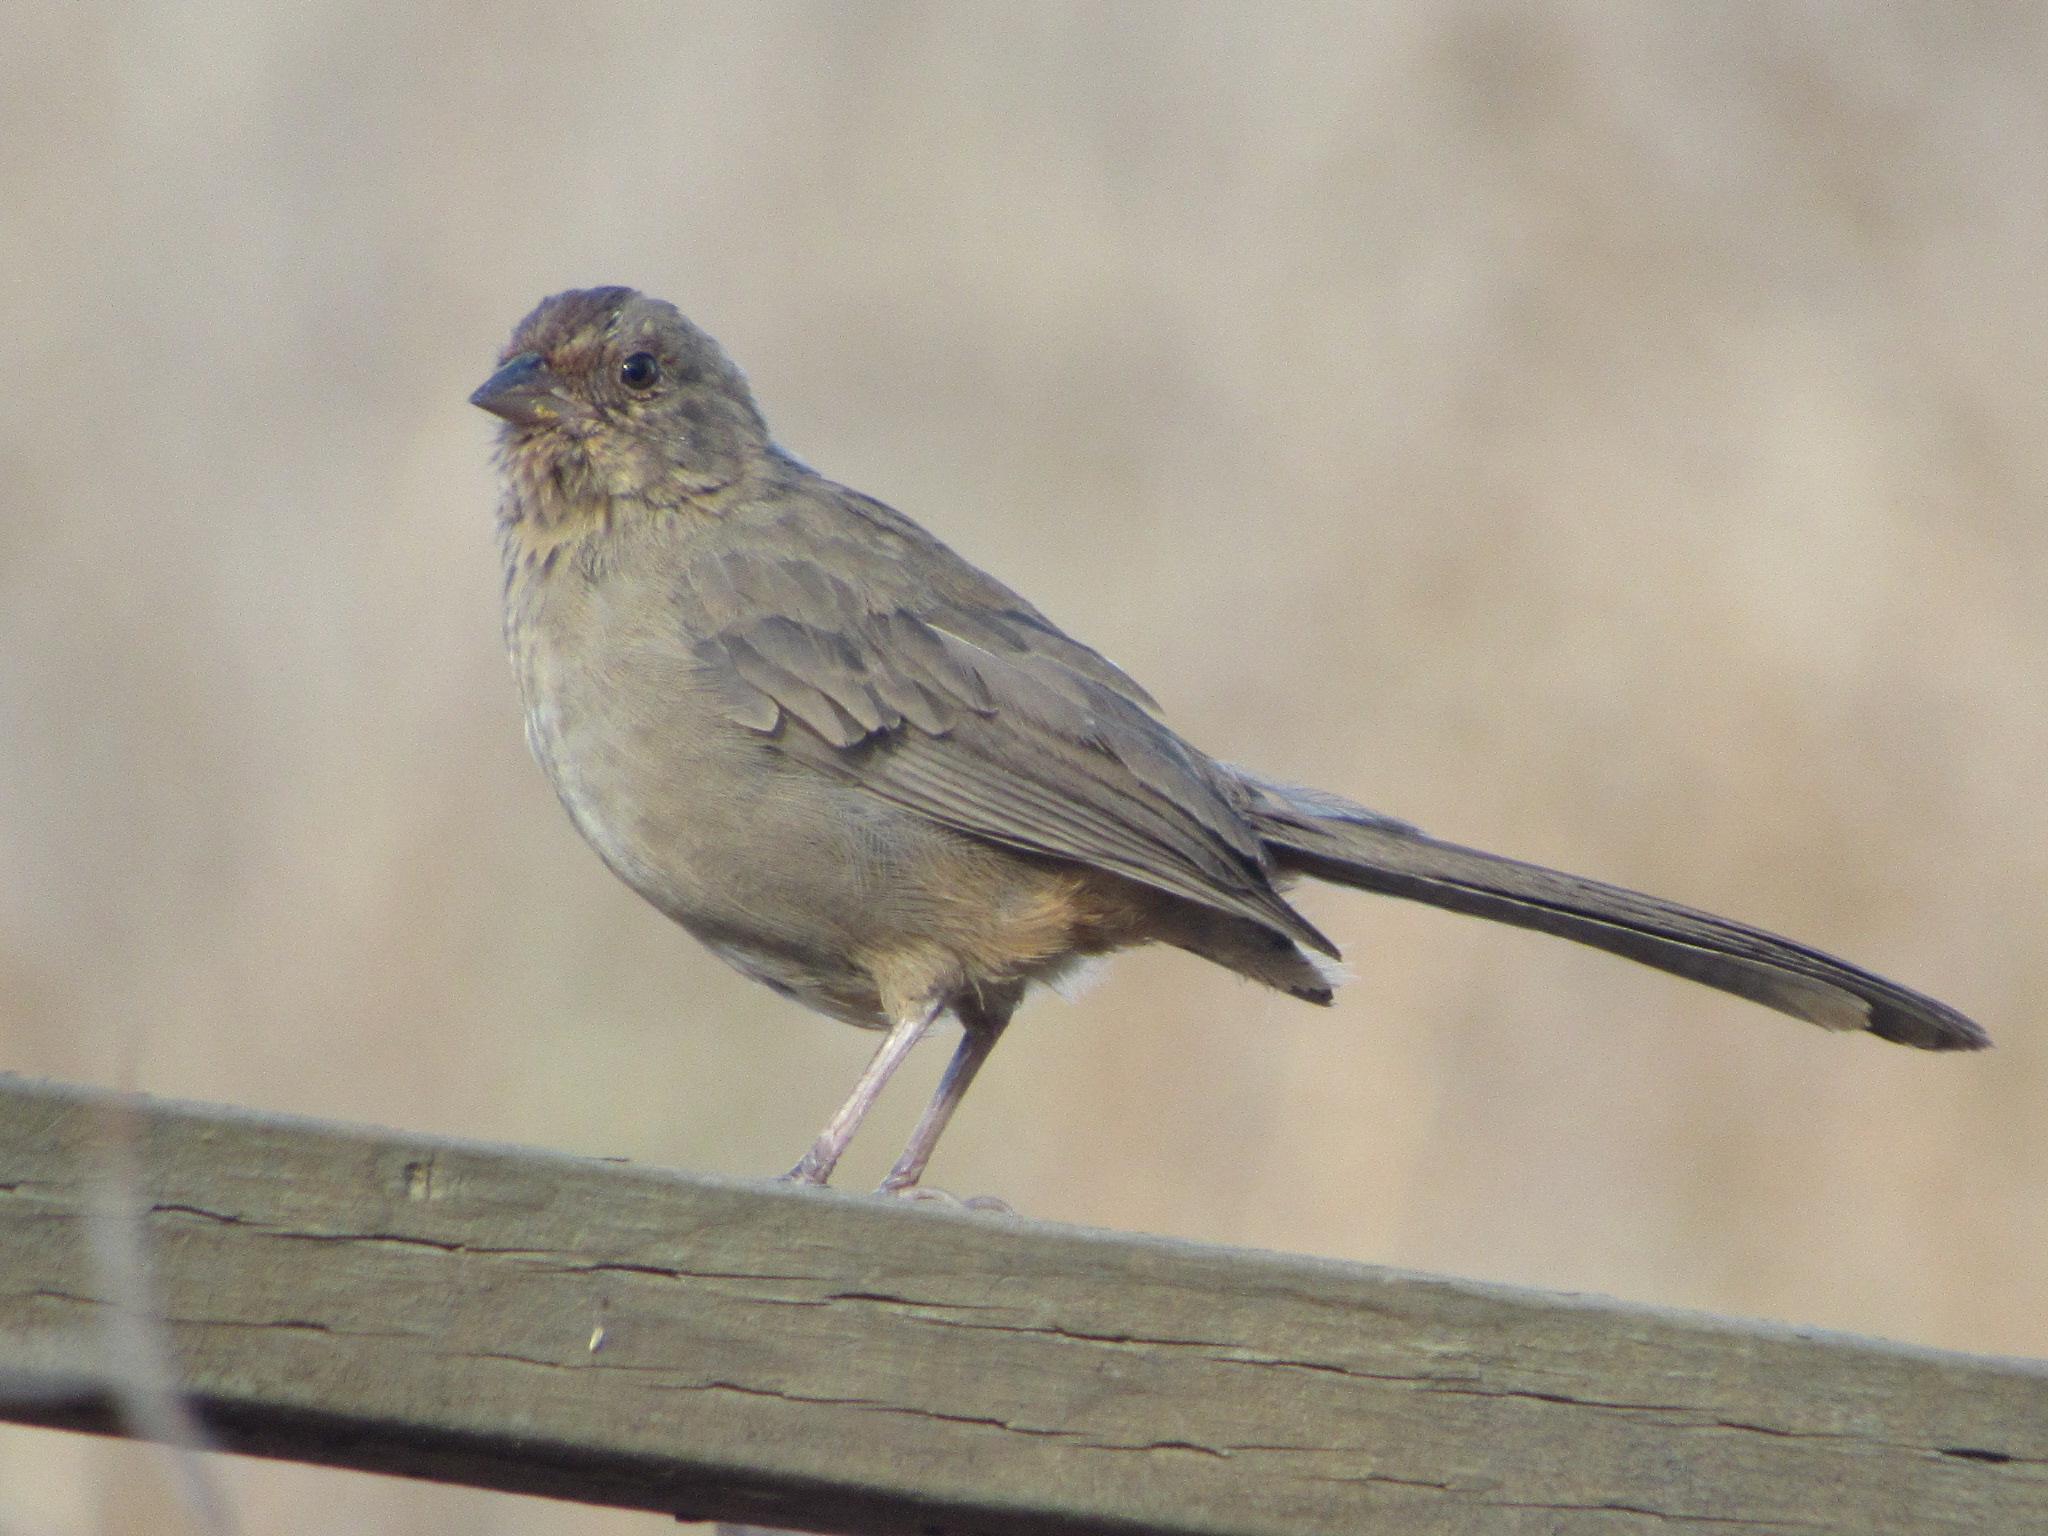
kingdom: Animalia
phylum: Chordata
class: Aves
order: Passeriformes
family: Passerellidae
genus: Melozone
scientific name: Melozone crissalis
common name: California towhee
